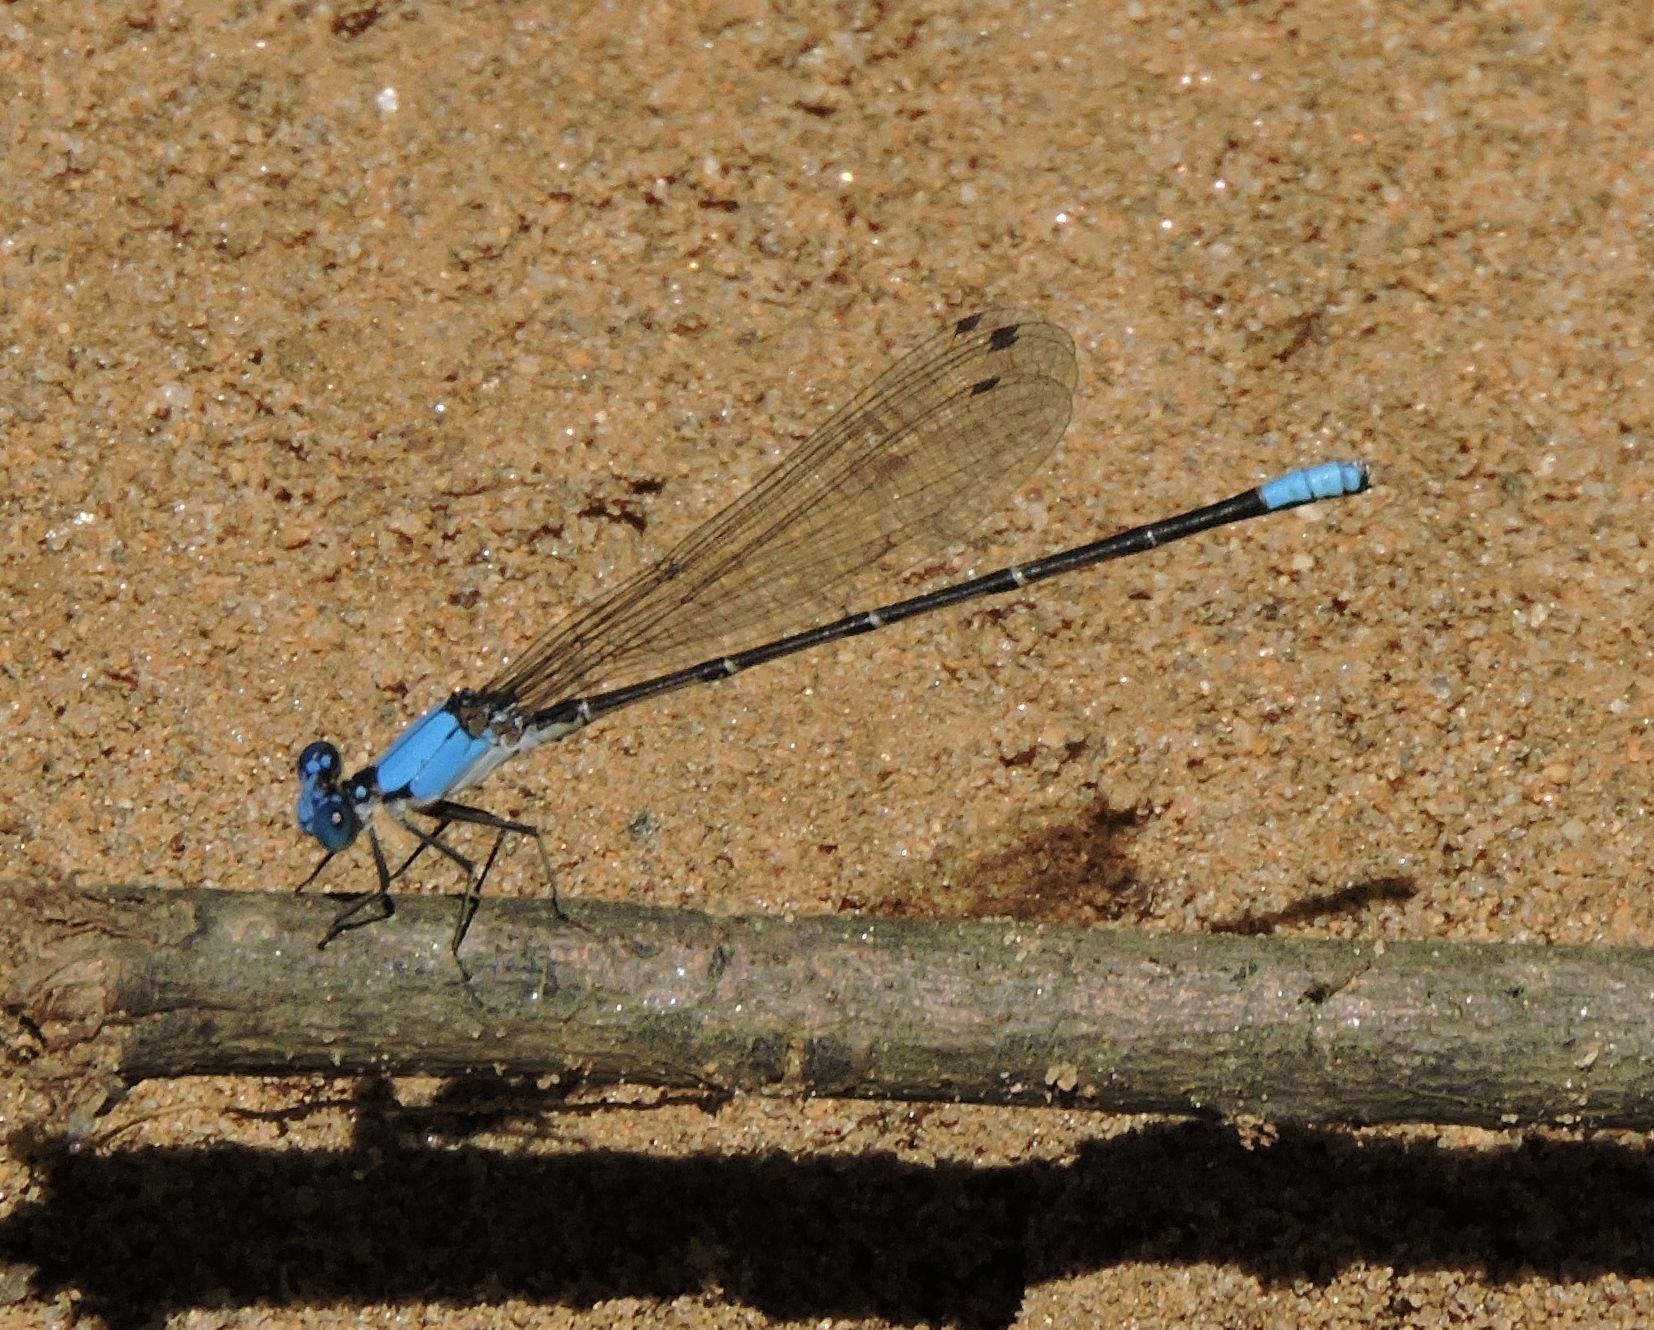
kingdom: Animalia
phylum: Arthropoda
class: Insecta
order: Odonata
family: Coenagrionidae
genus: Argia
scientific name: Argia apicalis
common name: Blue-fronted dancer
